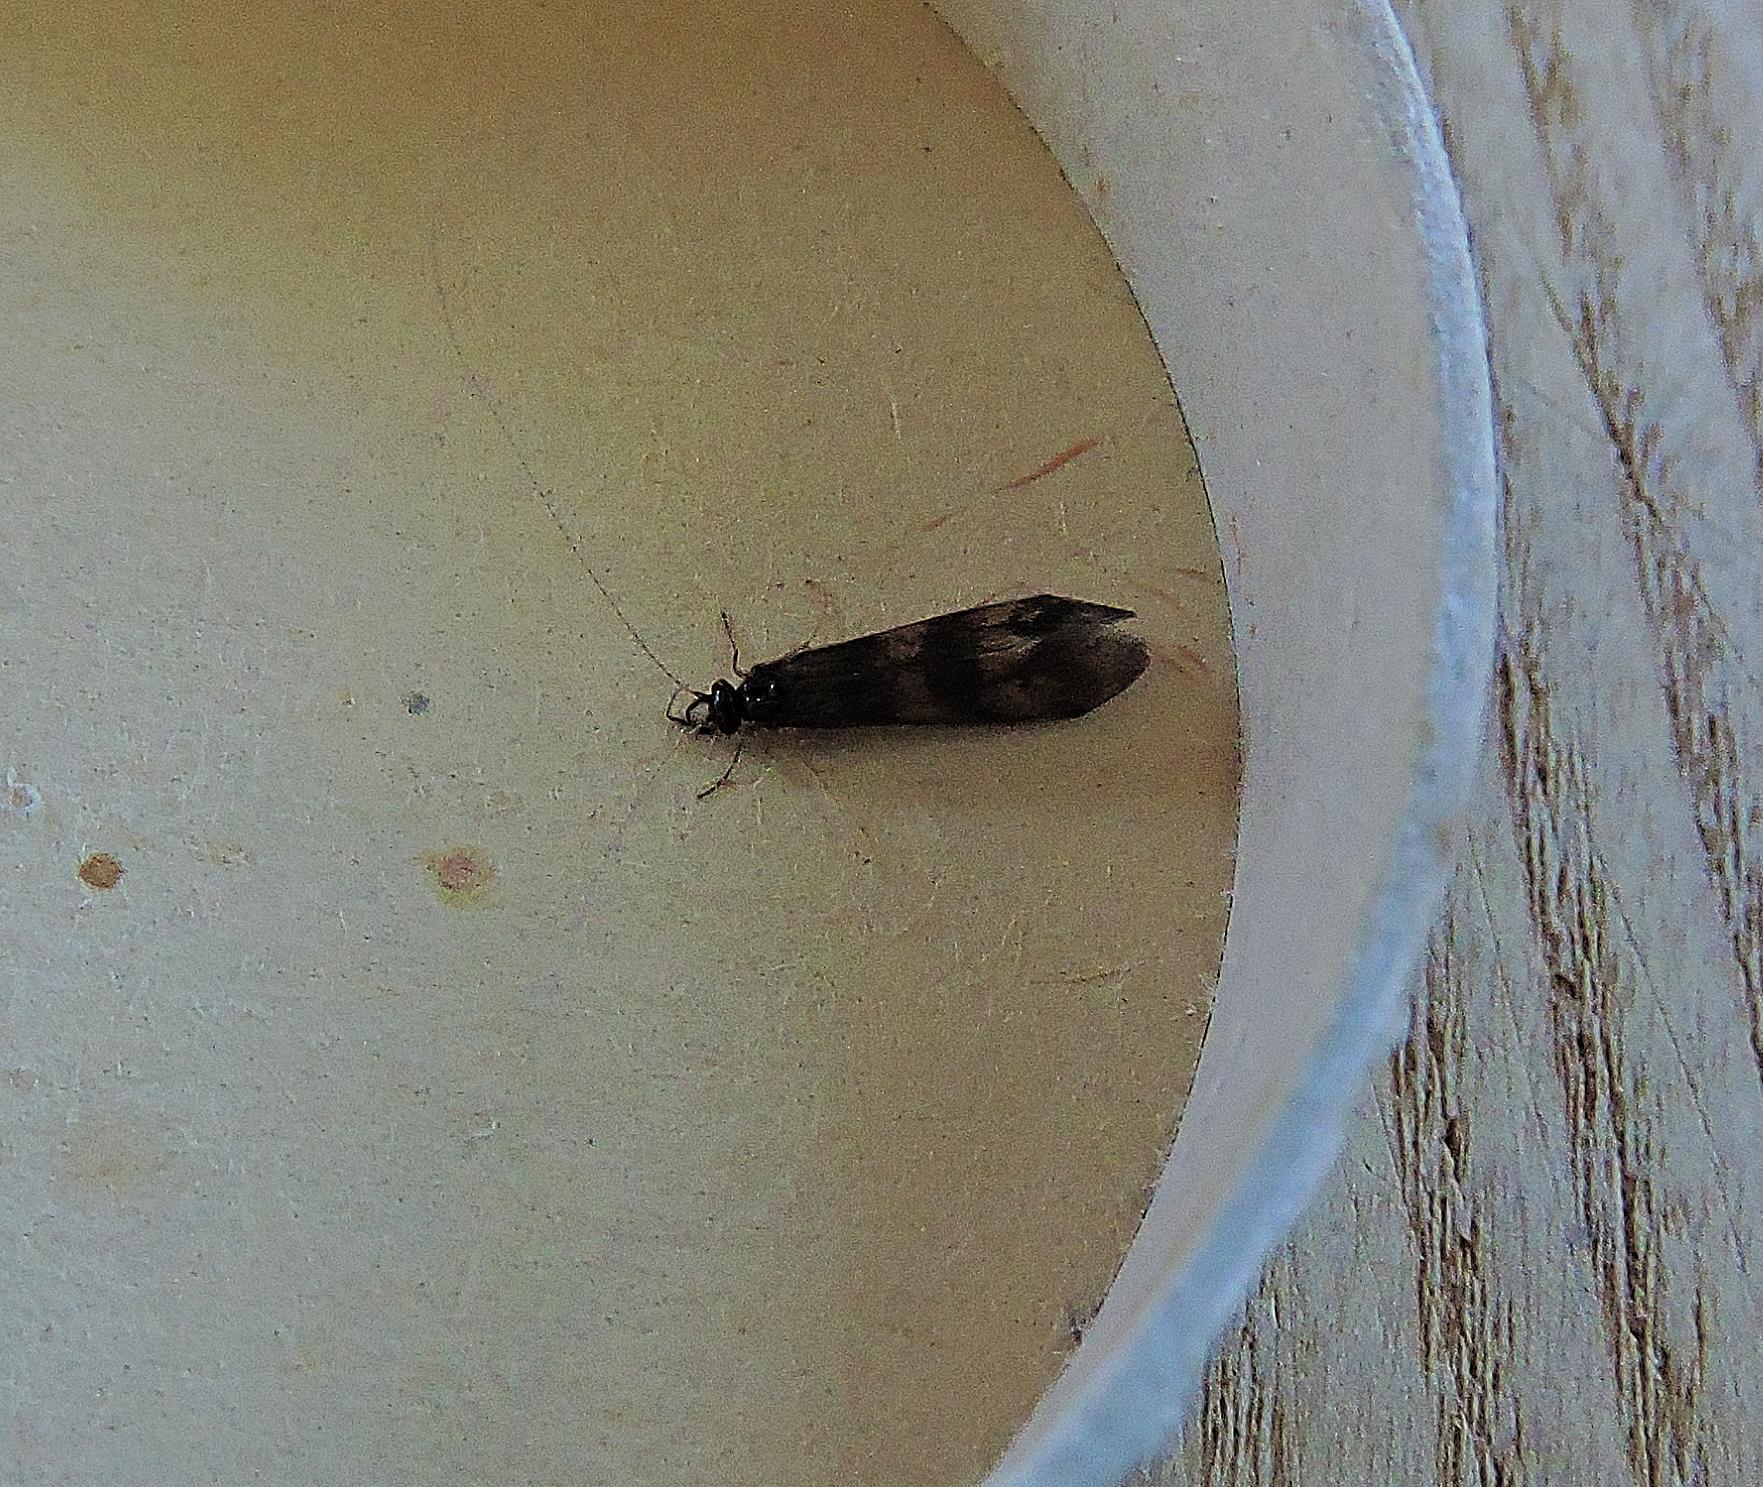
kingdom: Animalia
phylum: Arthropoda
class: Insecta
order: Trichoptera
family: Leptoceridae
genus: Mystacides
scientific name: Mystacides longicornis
